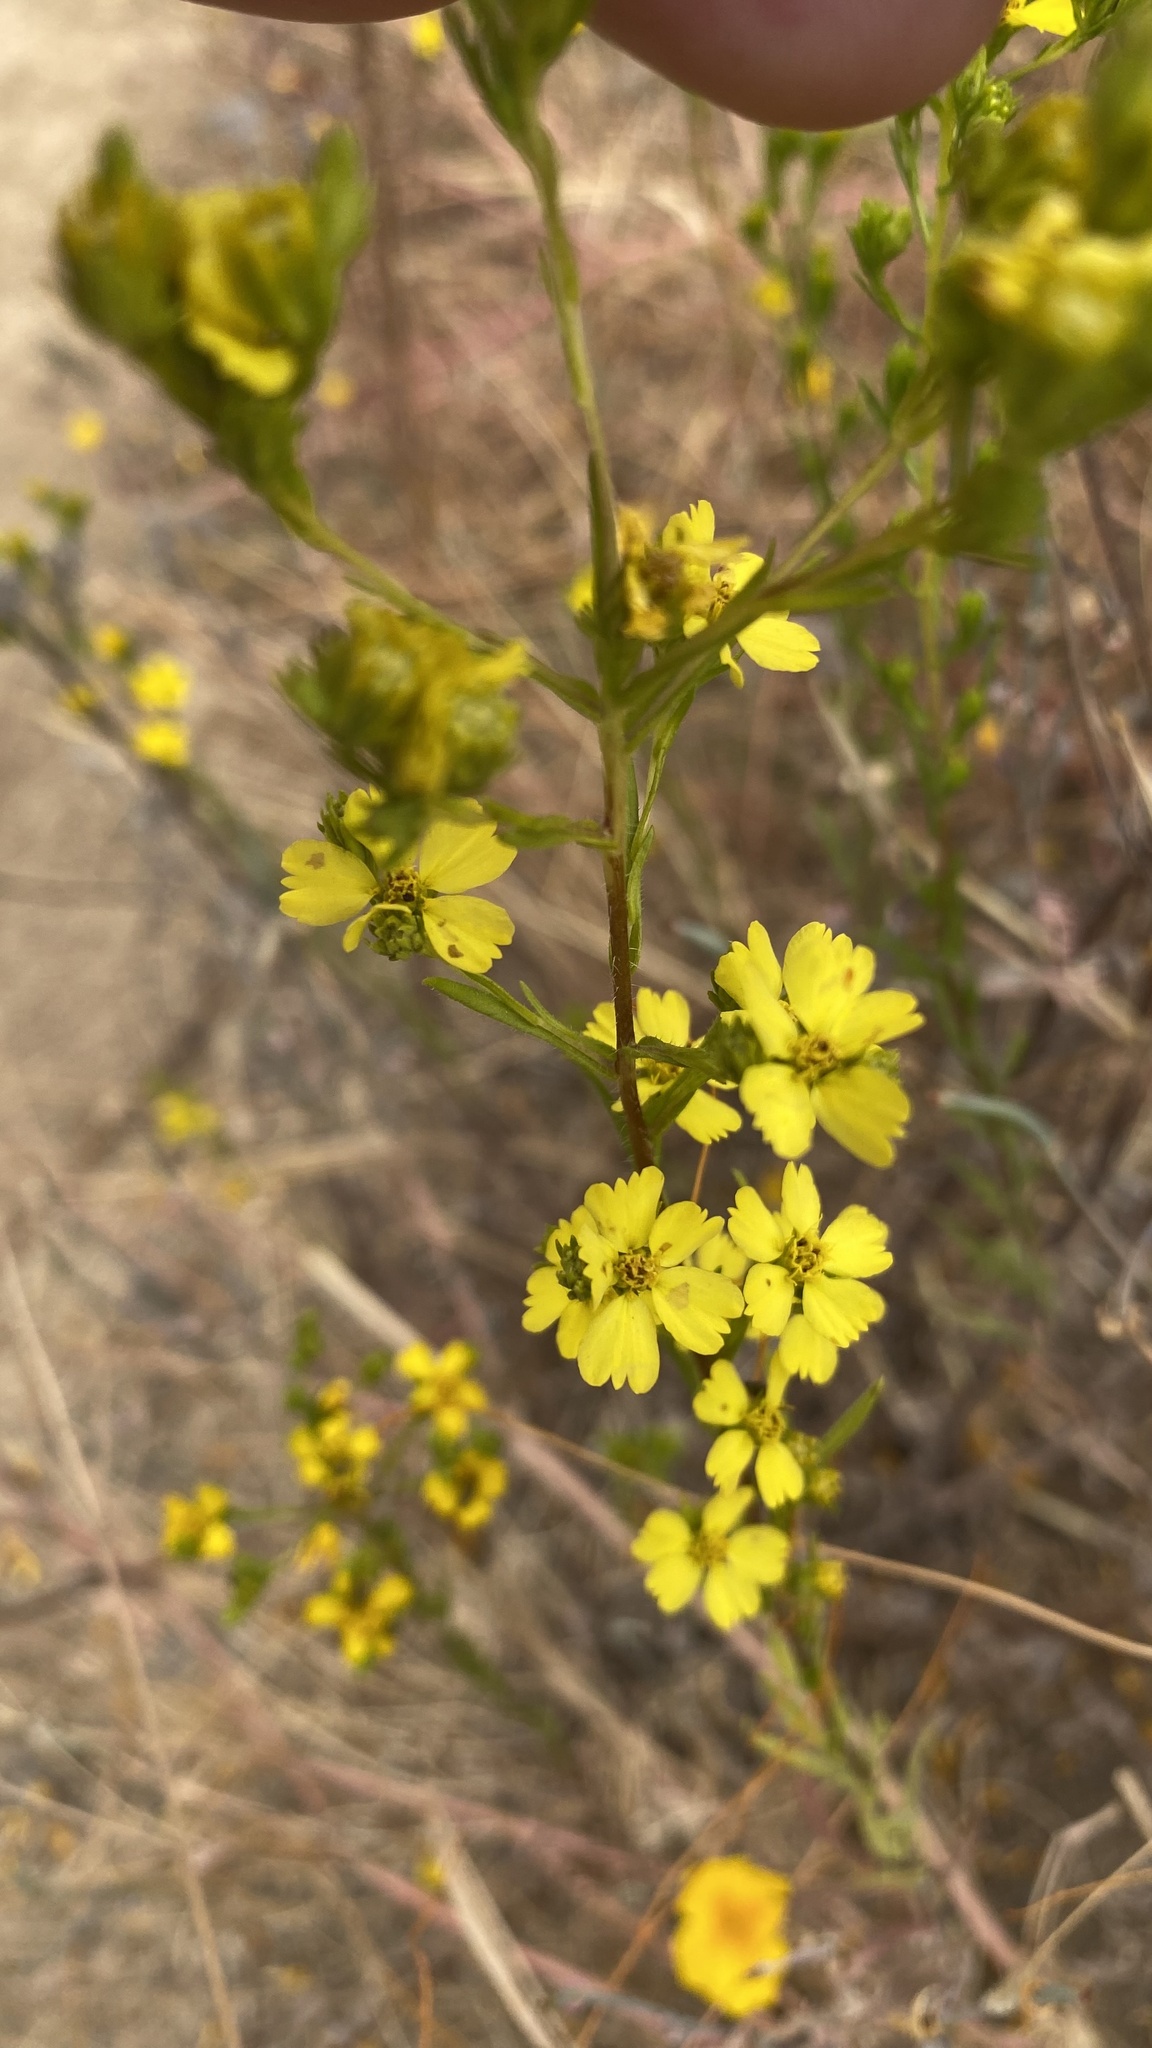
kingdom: Plantae
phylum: Tracheophyta
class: Magnoliopsida
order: Asterales
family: Asteraceae
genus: Deinandra
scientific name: Deinandra fasciculata
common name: Clustered tarweed
